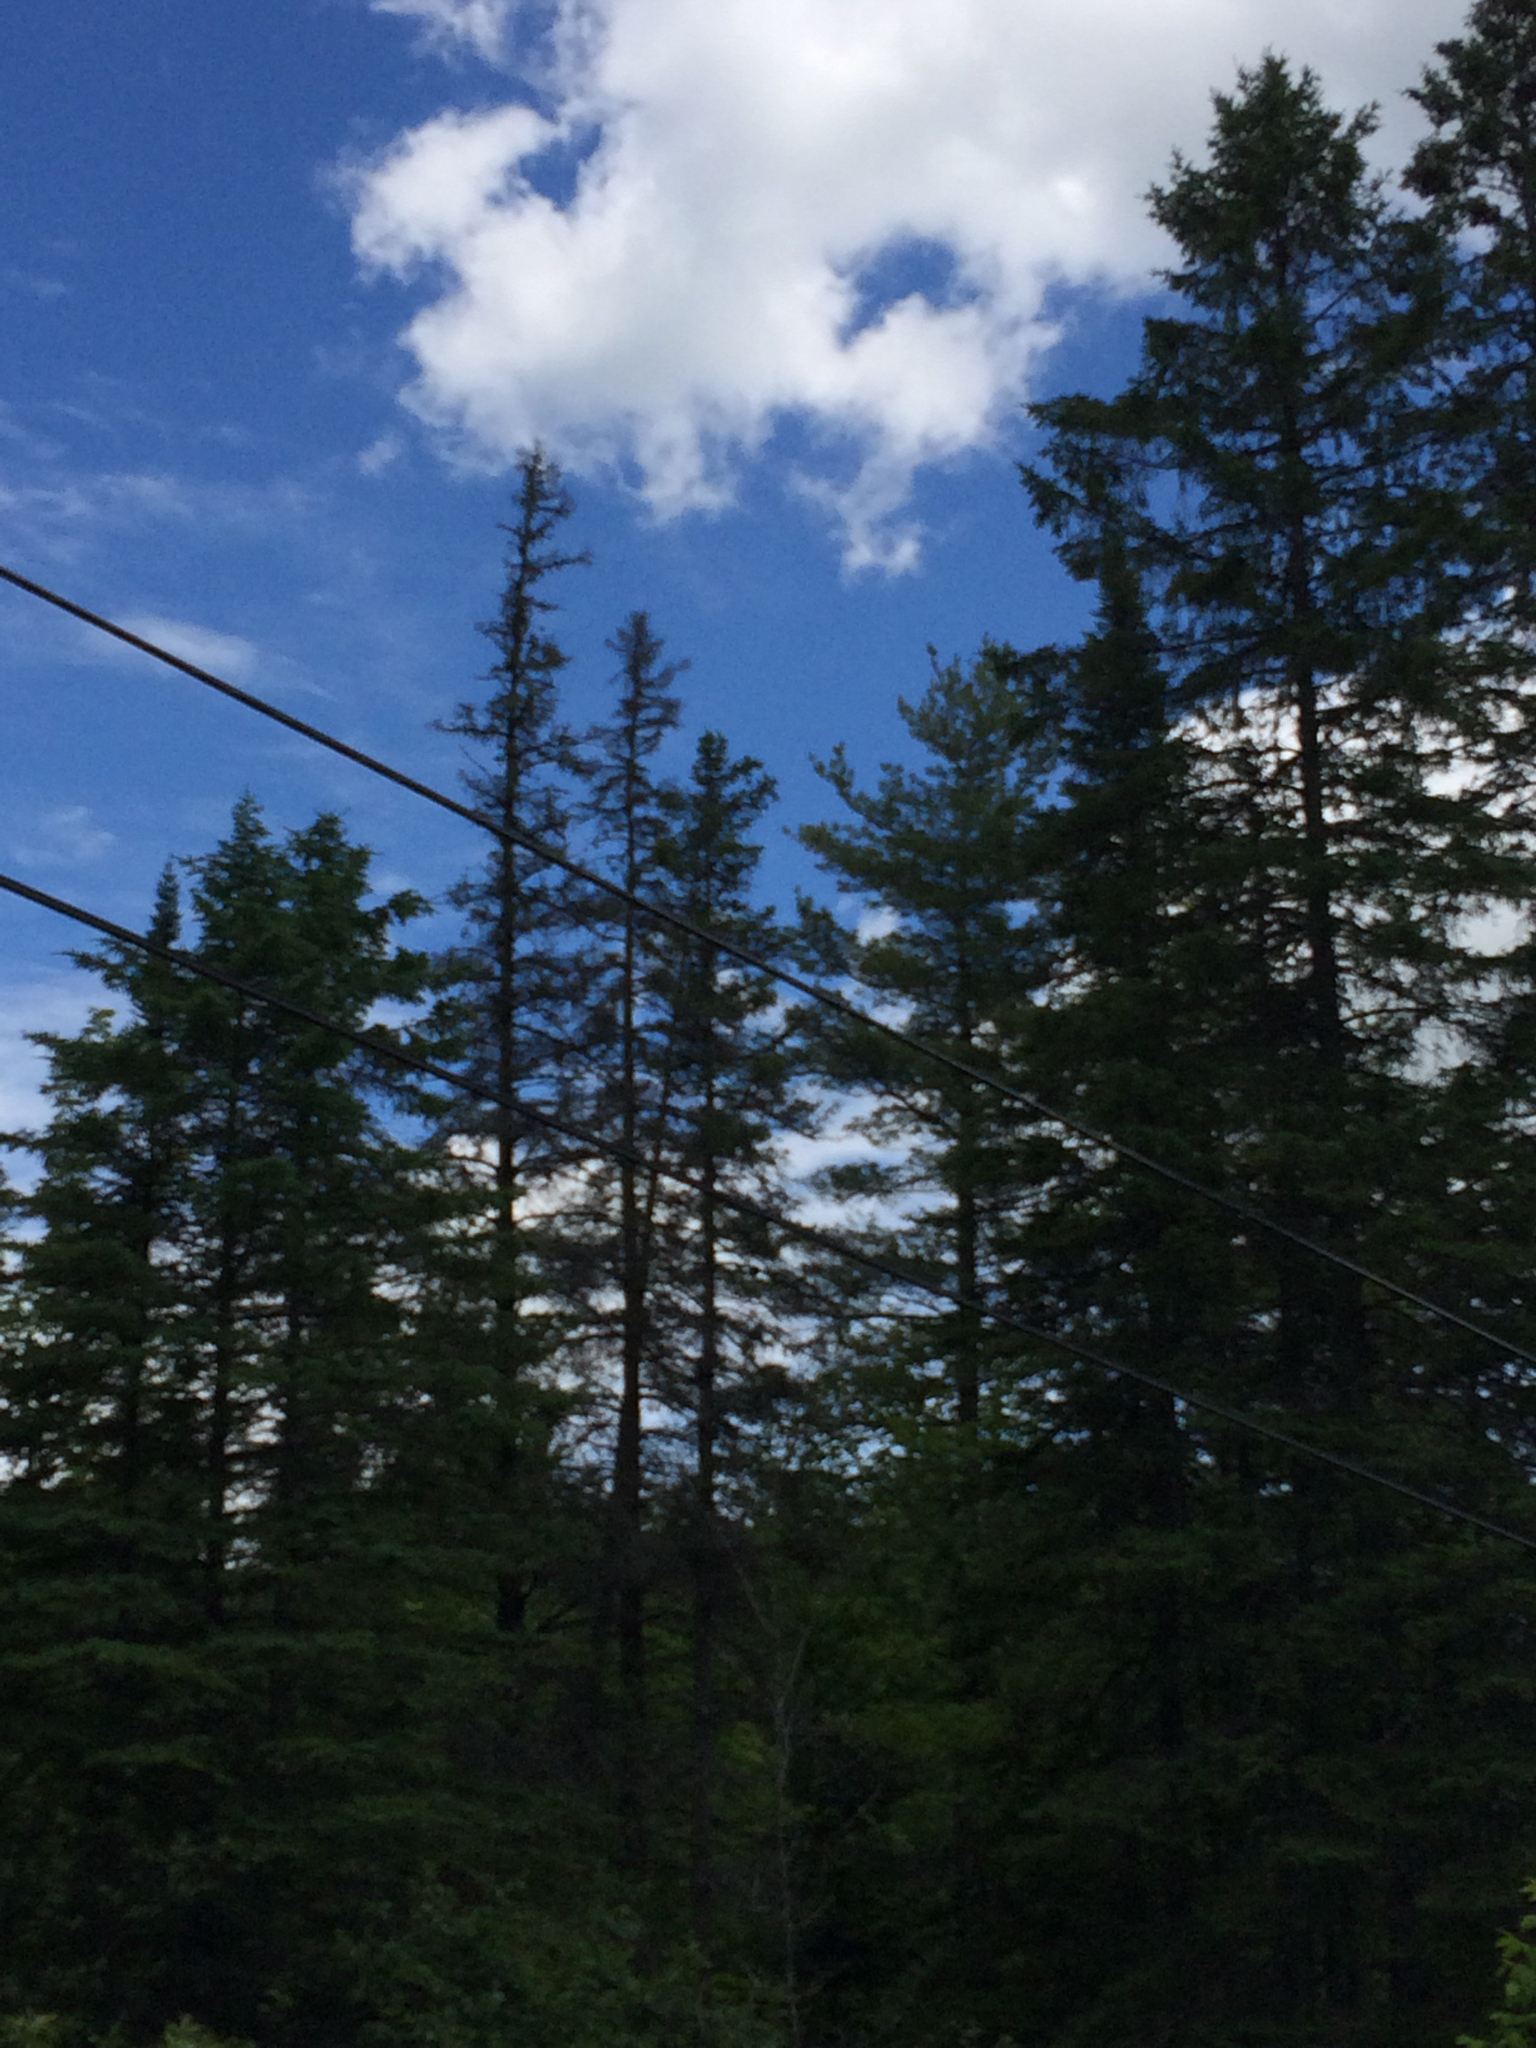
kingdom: Plantae
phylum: Tracheophyta
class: Pinopsida
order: Pinales
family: Pinaceae
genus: Pinus
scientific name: Pinus strobus
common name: Weymouth pine
